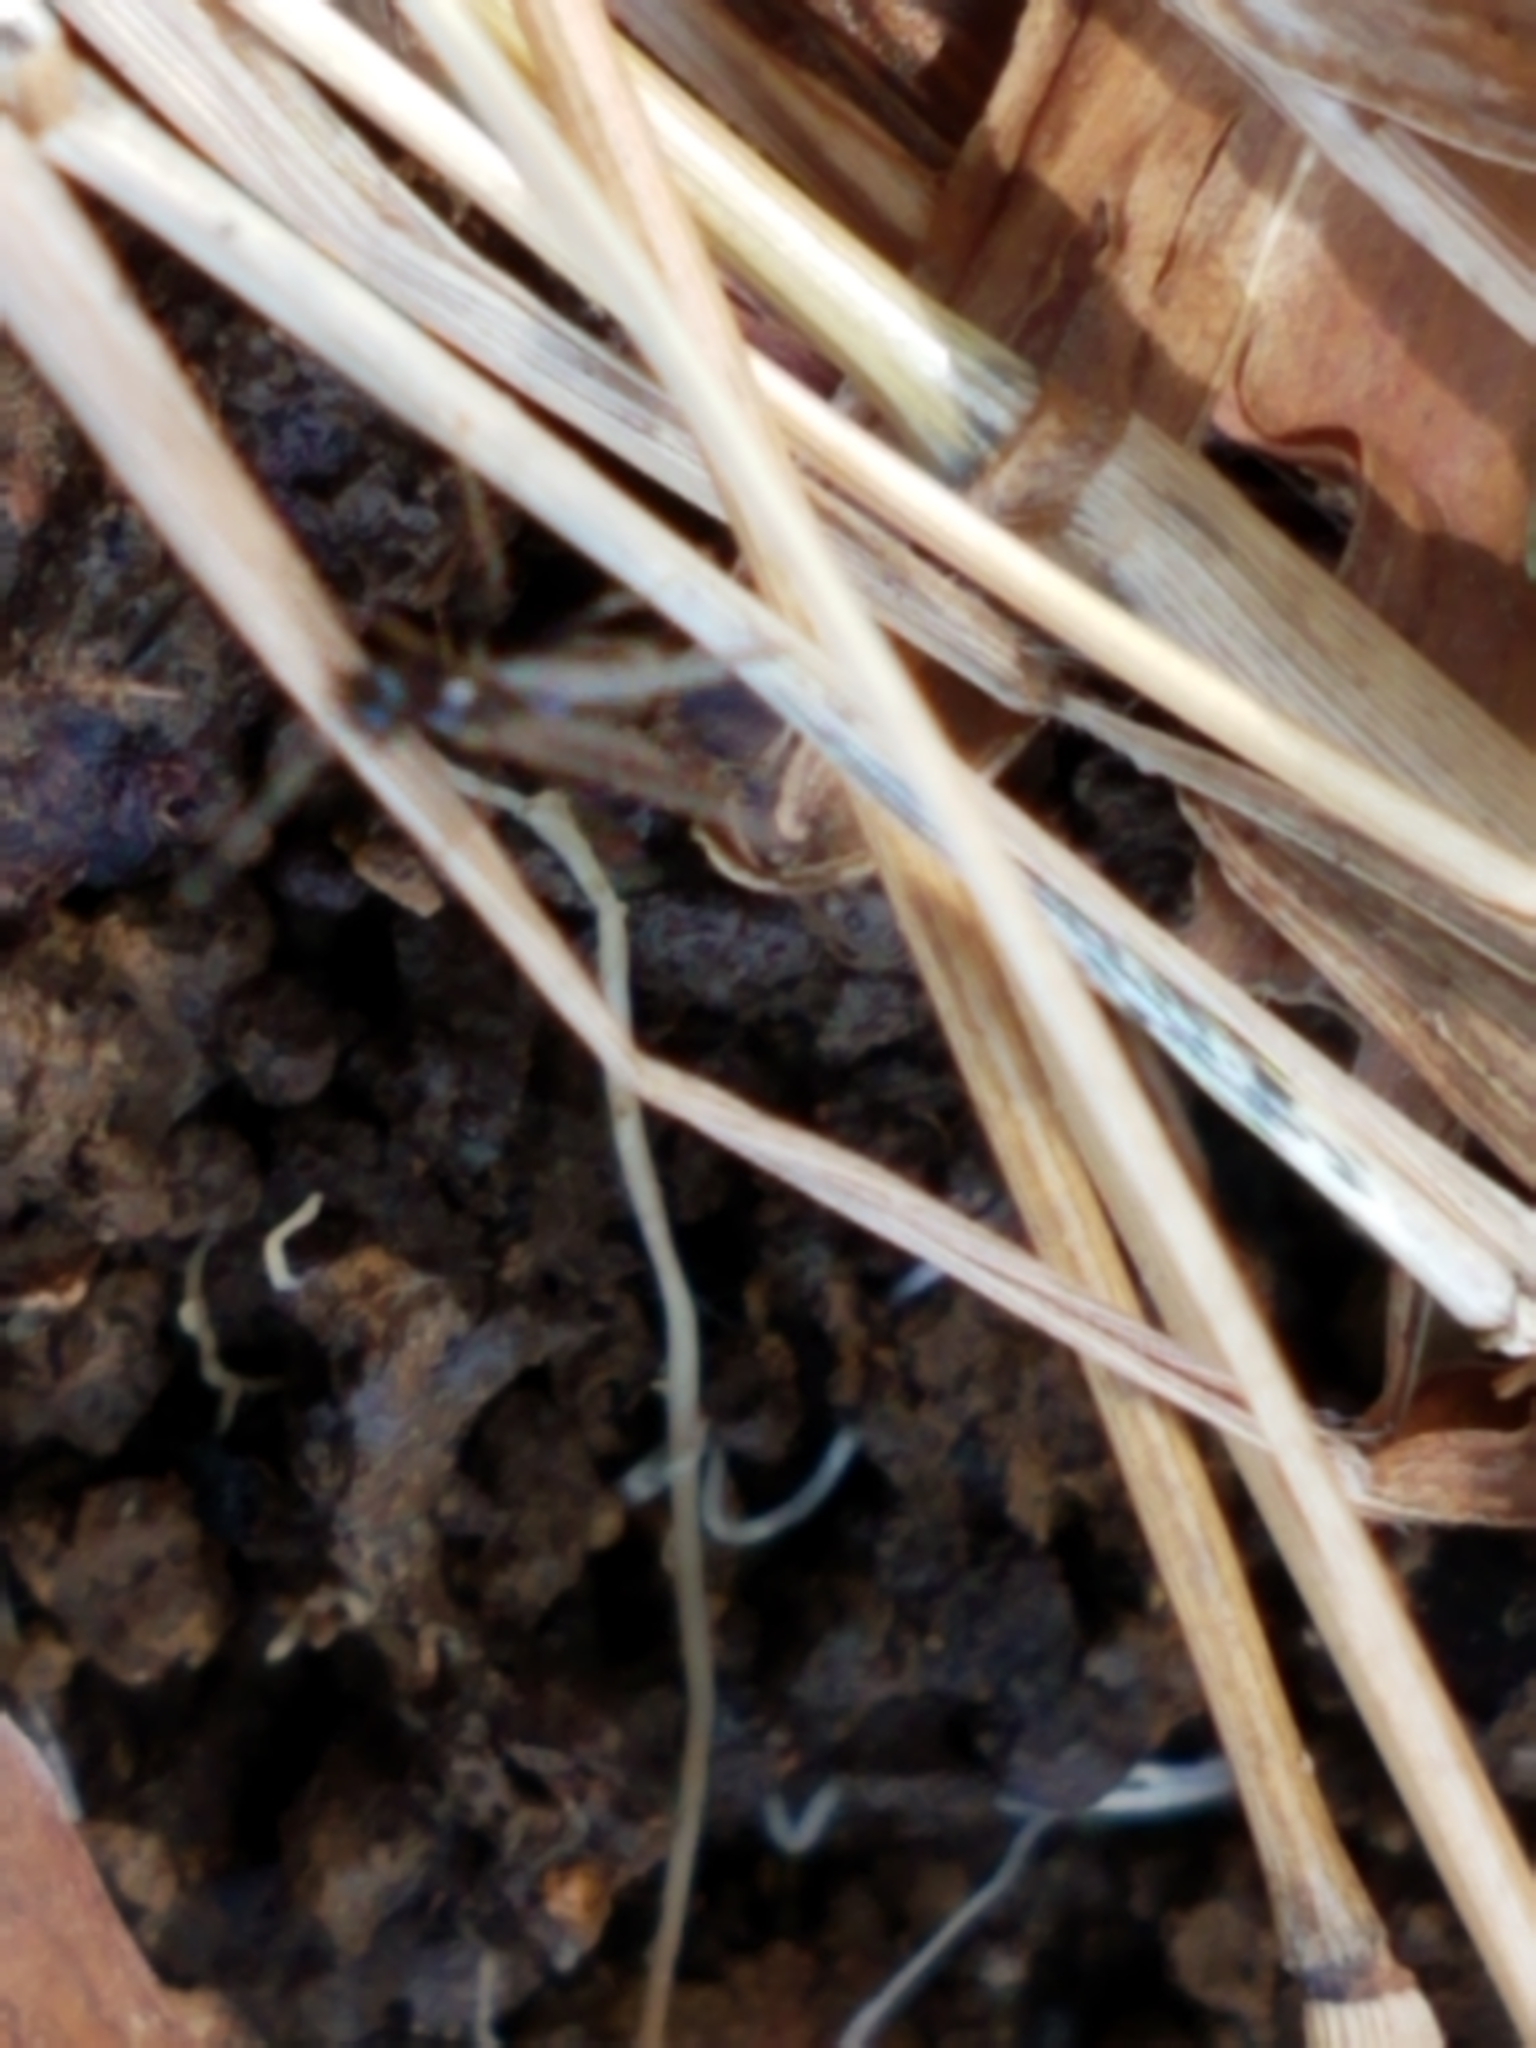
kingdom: Animalia
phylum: Arthropoda
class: Insecta
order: Hymenoptera
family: Formicidae
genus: Prenolepis
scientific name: Prenolepis imparis
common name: Small honey ant
